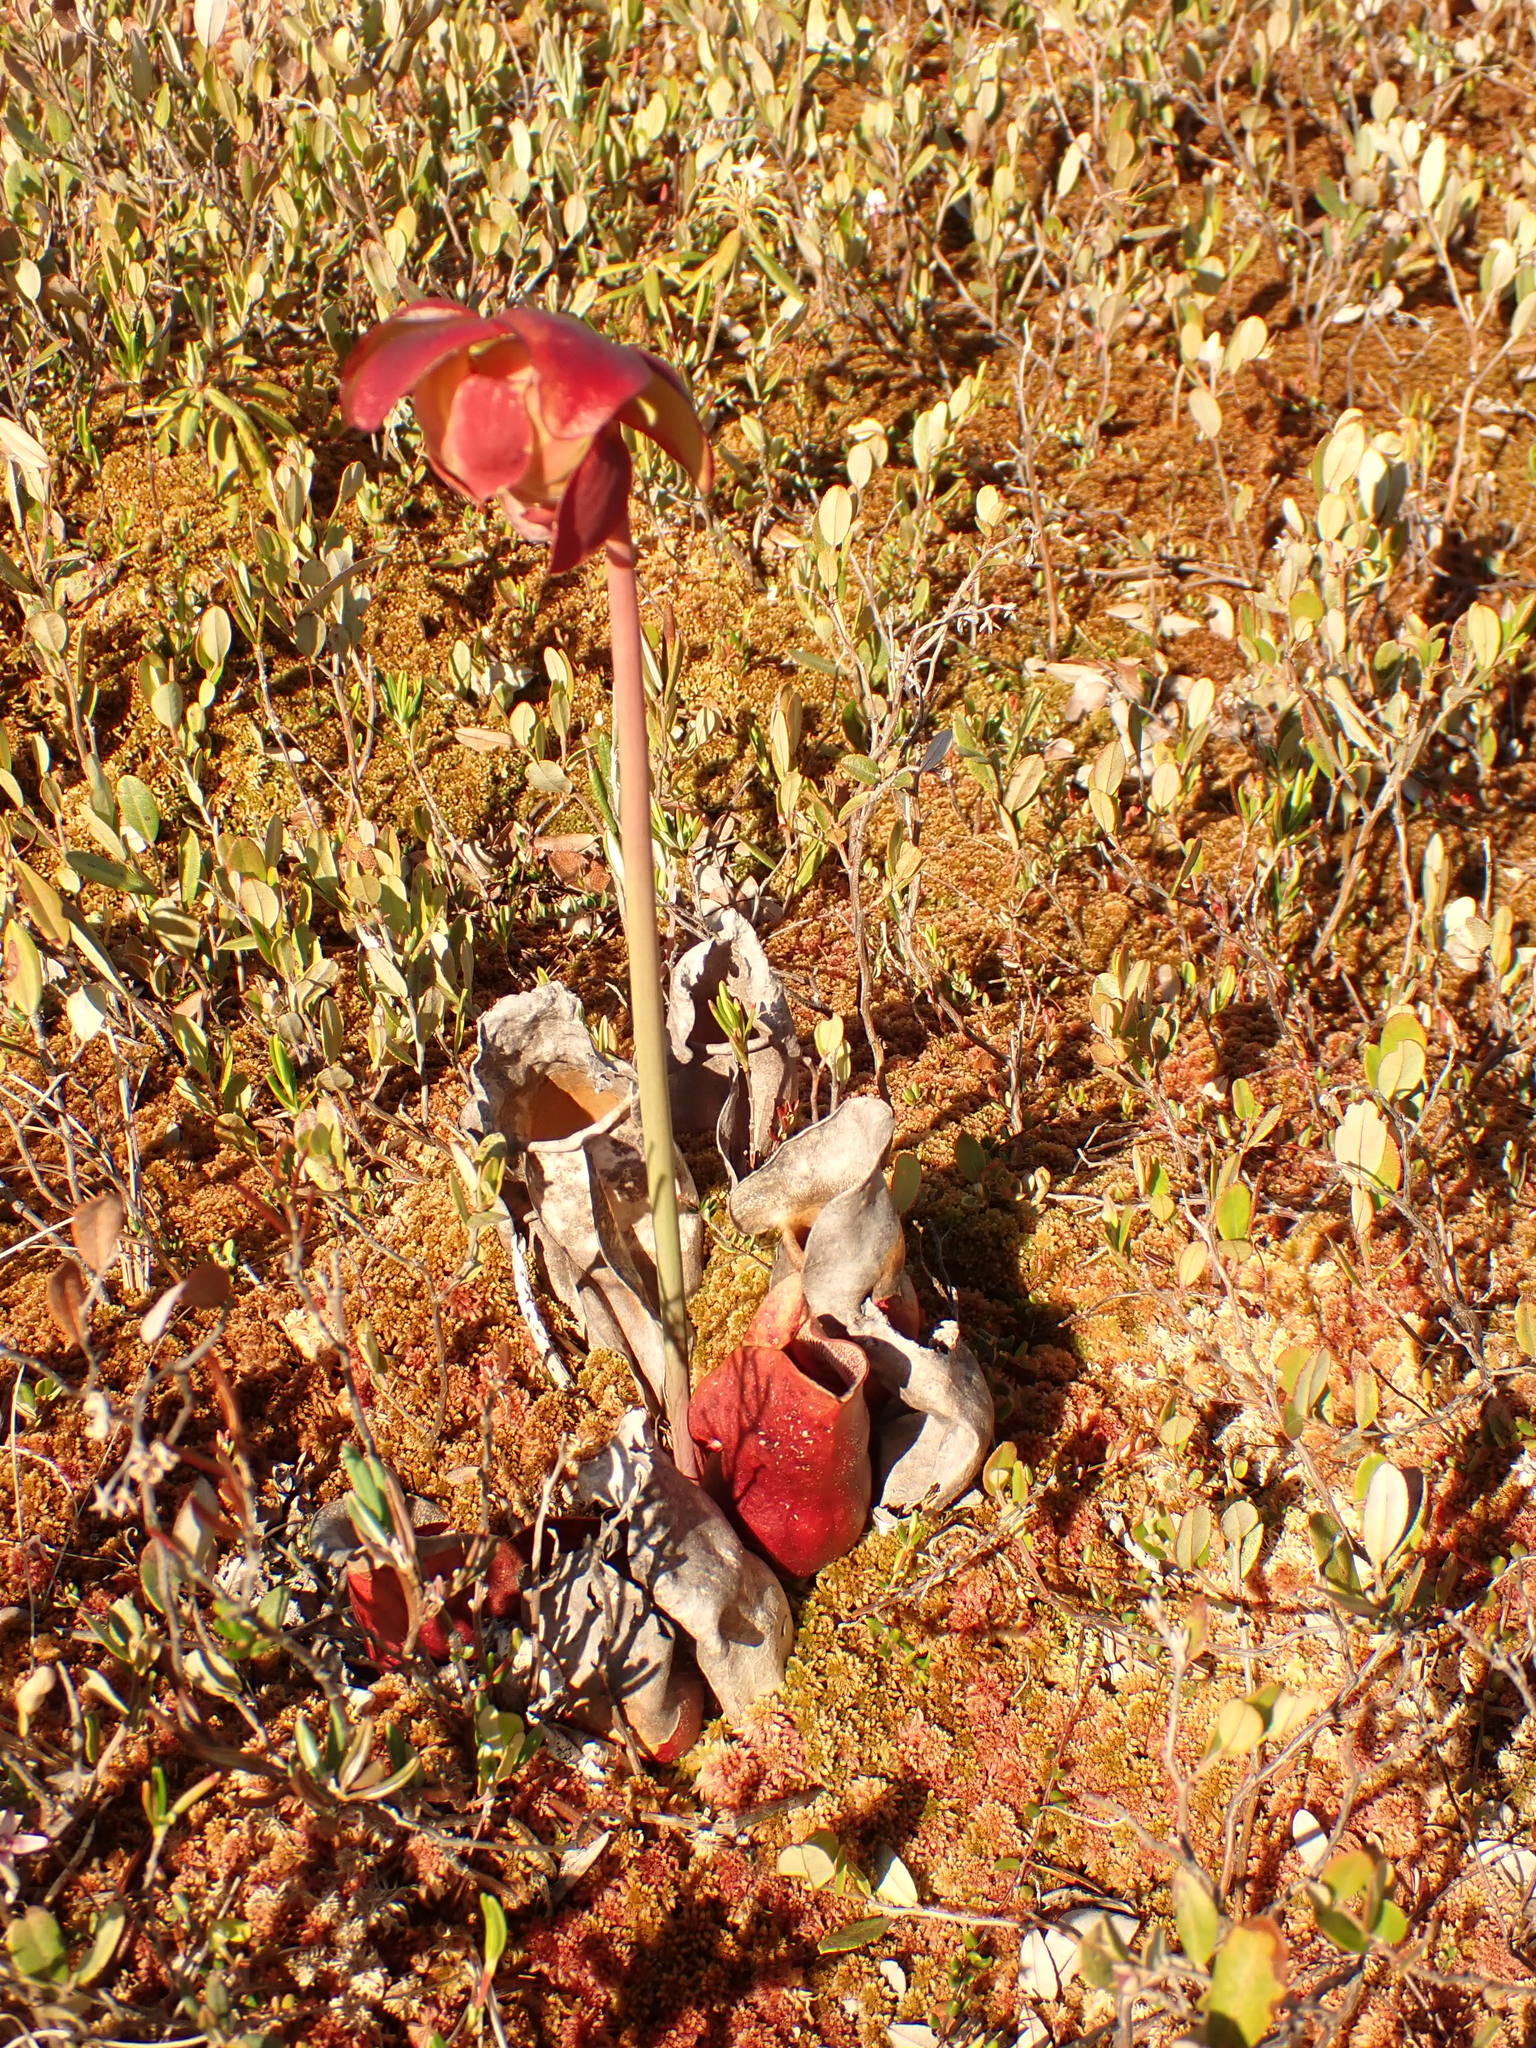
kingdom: Plantae
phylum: Tracheophyta
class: Magnoliopsida
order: Ericales
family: Sarraceniaceae
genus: Sarracenia
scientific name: Sarracenia purpurea
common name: Pitcherplant
